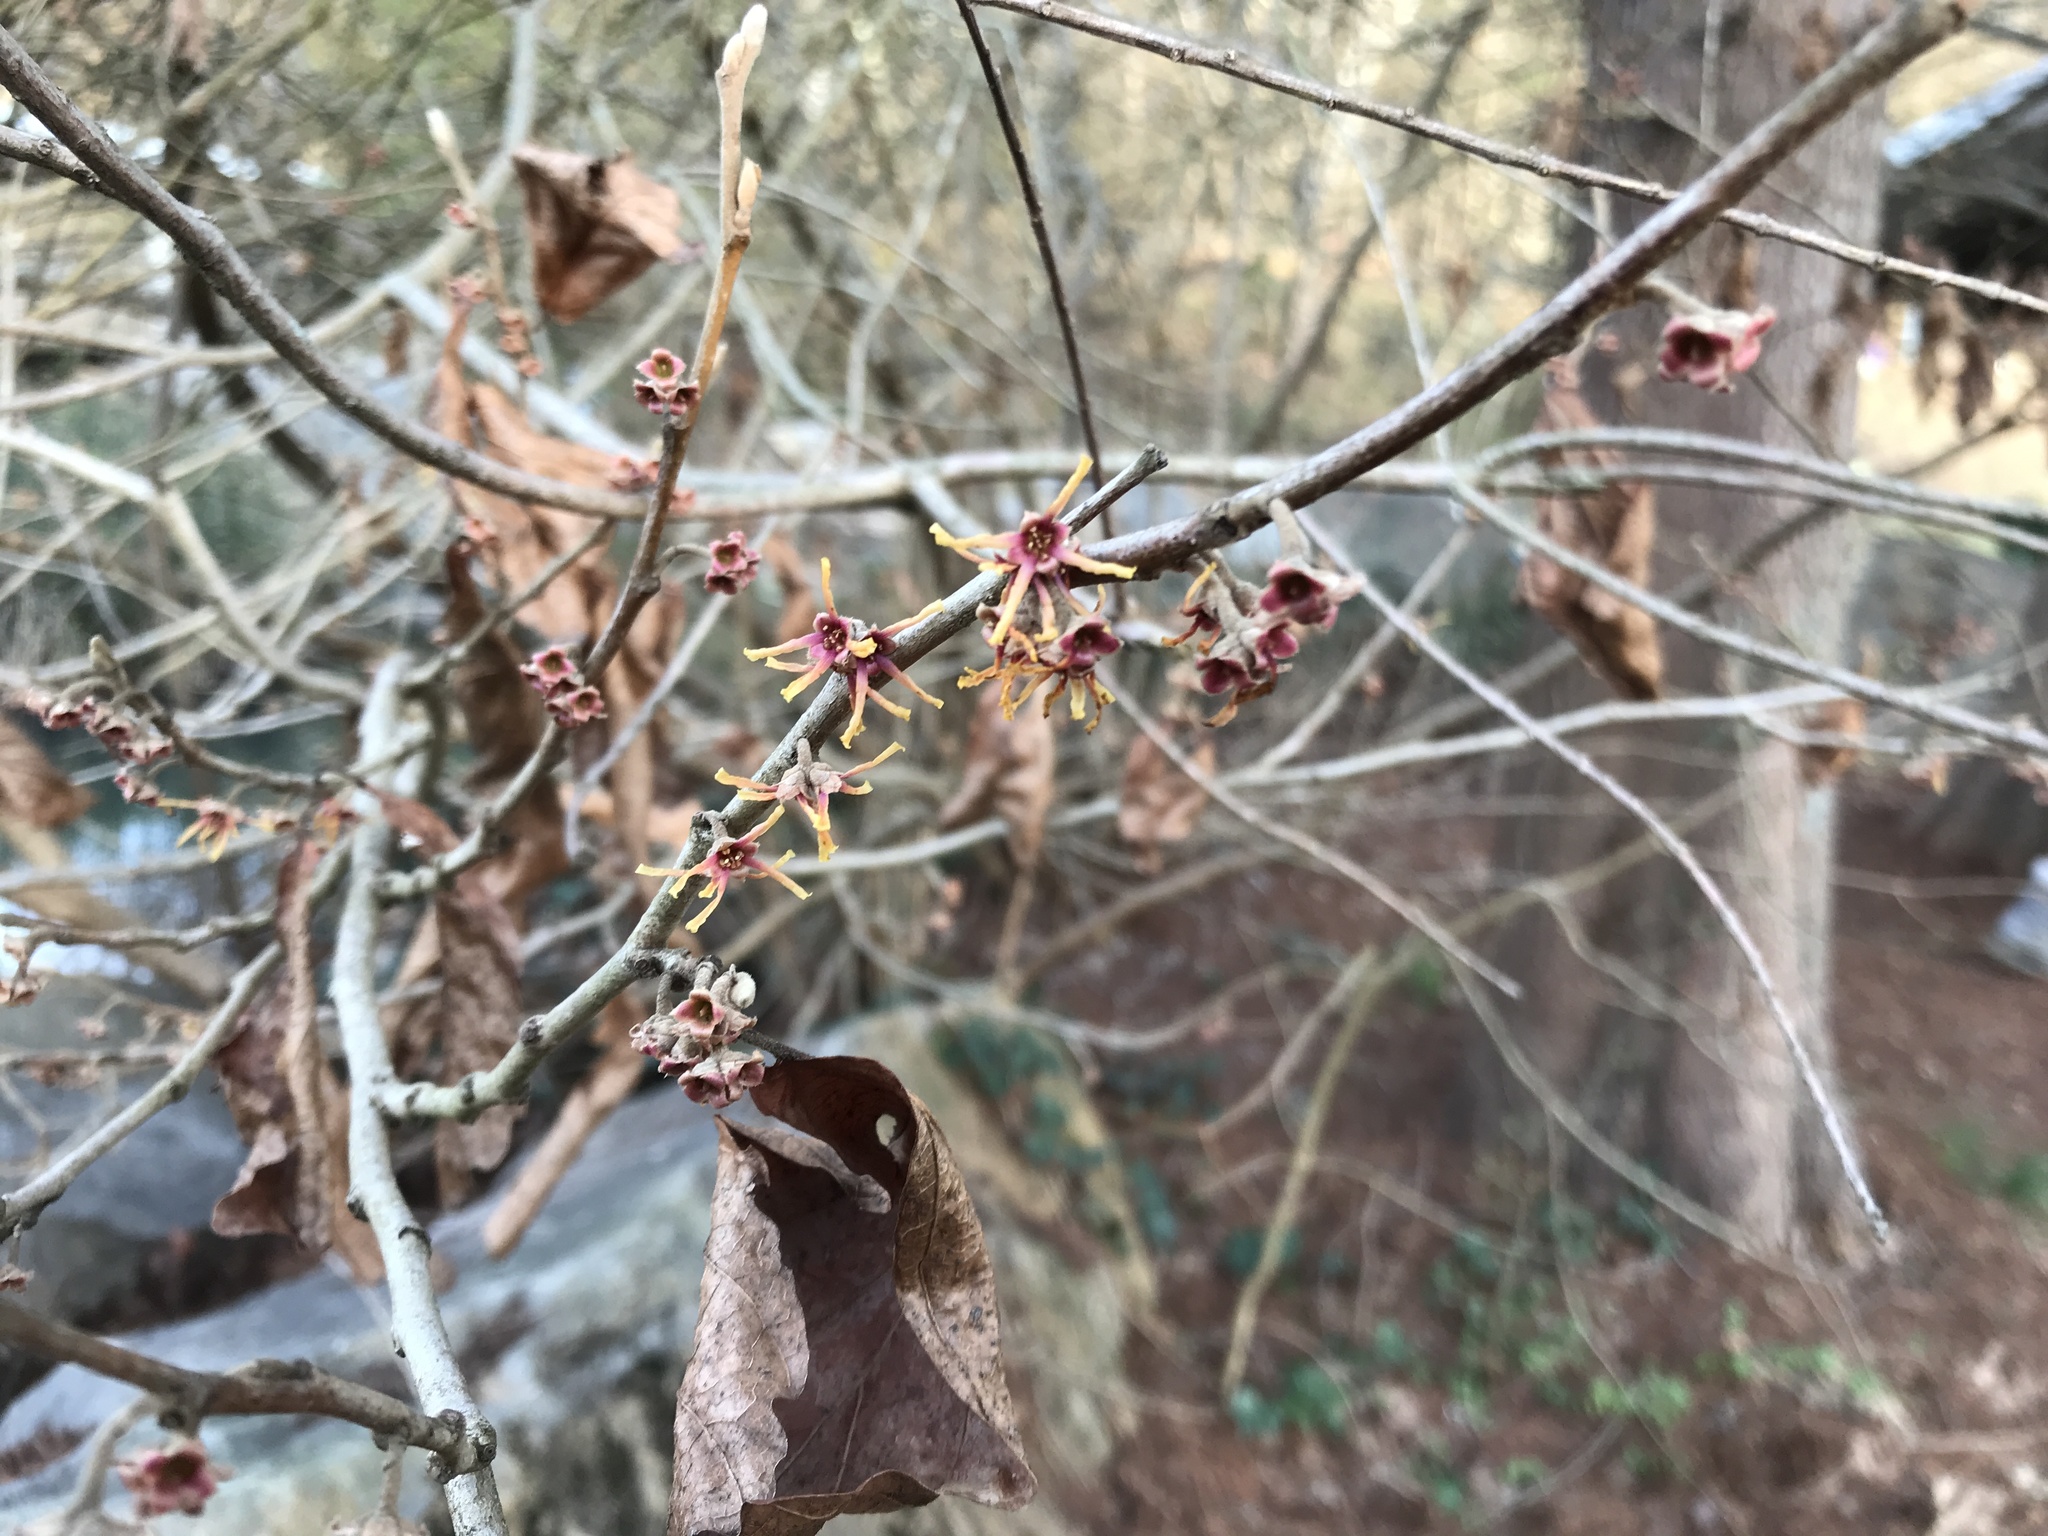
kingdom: Plantae
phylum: Tracheophyta
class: Magnoliopsida
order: Saxifragales
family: Hamamelidaceae
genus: Hamamelis
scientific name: Hamamelis virginiana
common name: Witch-hazel
